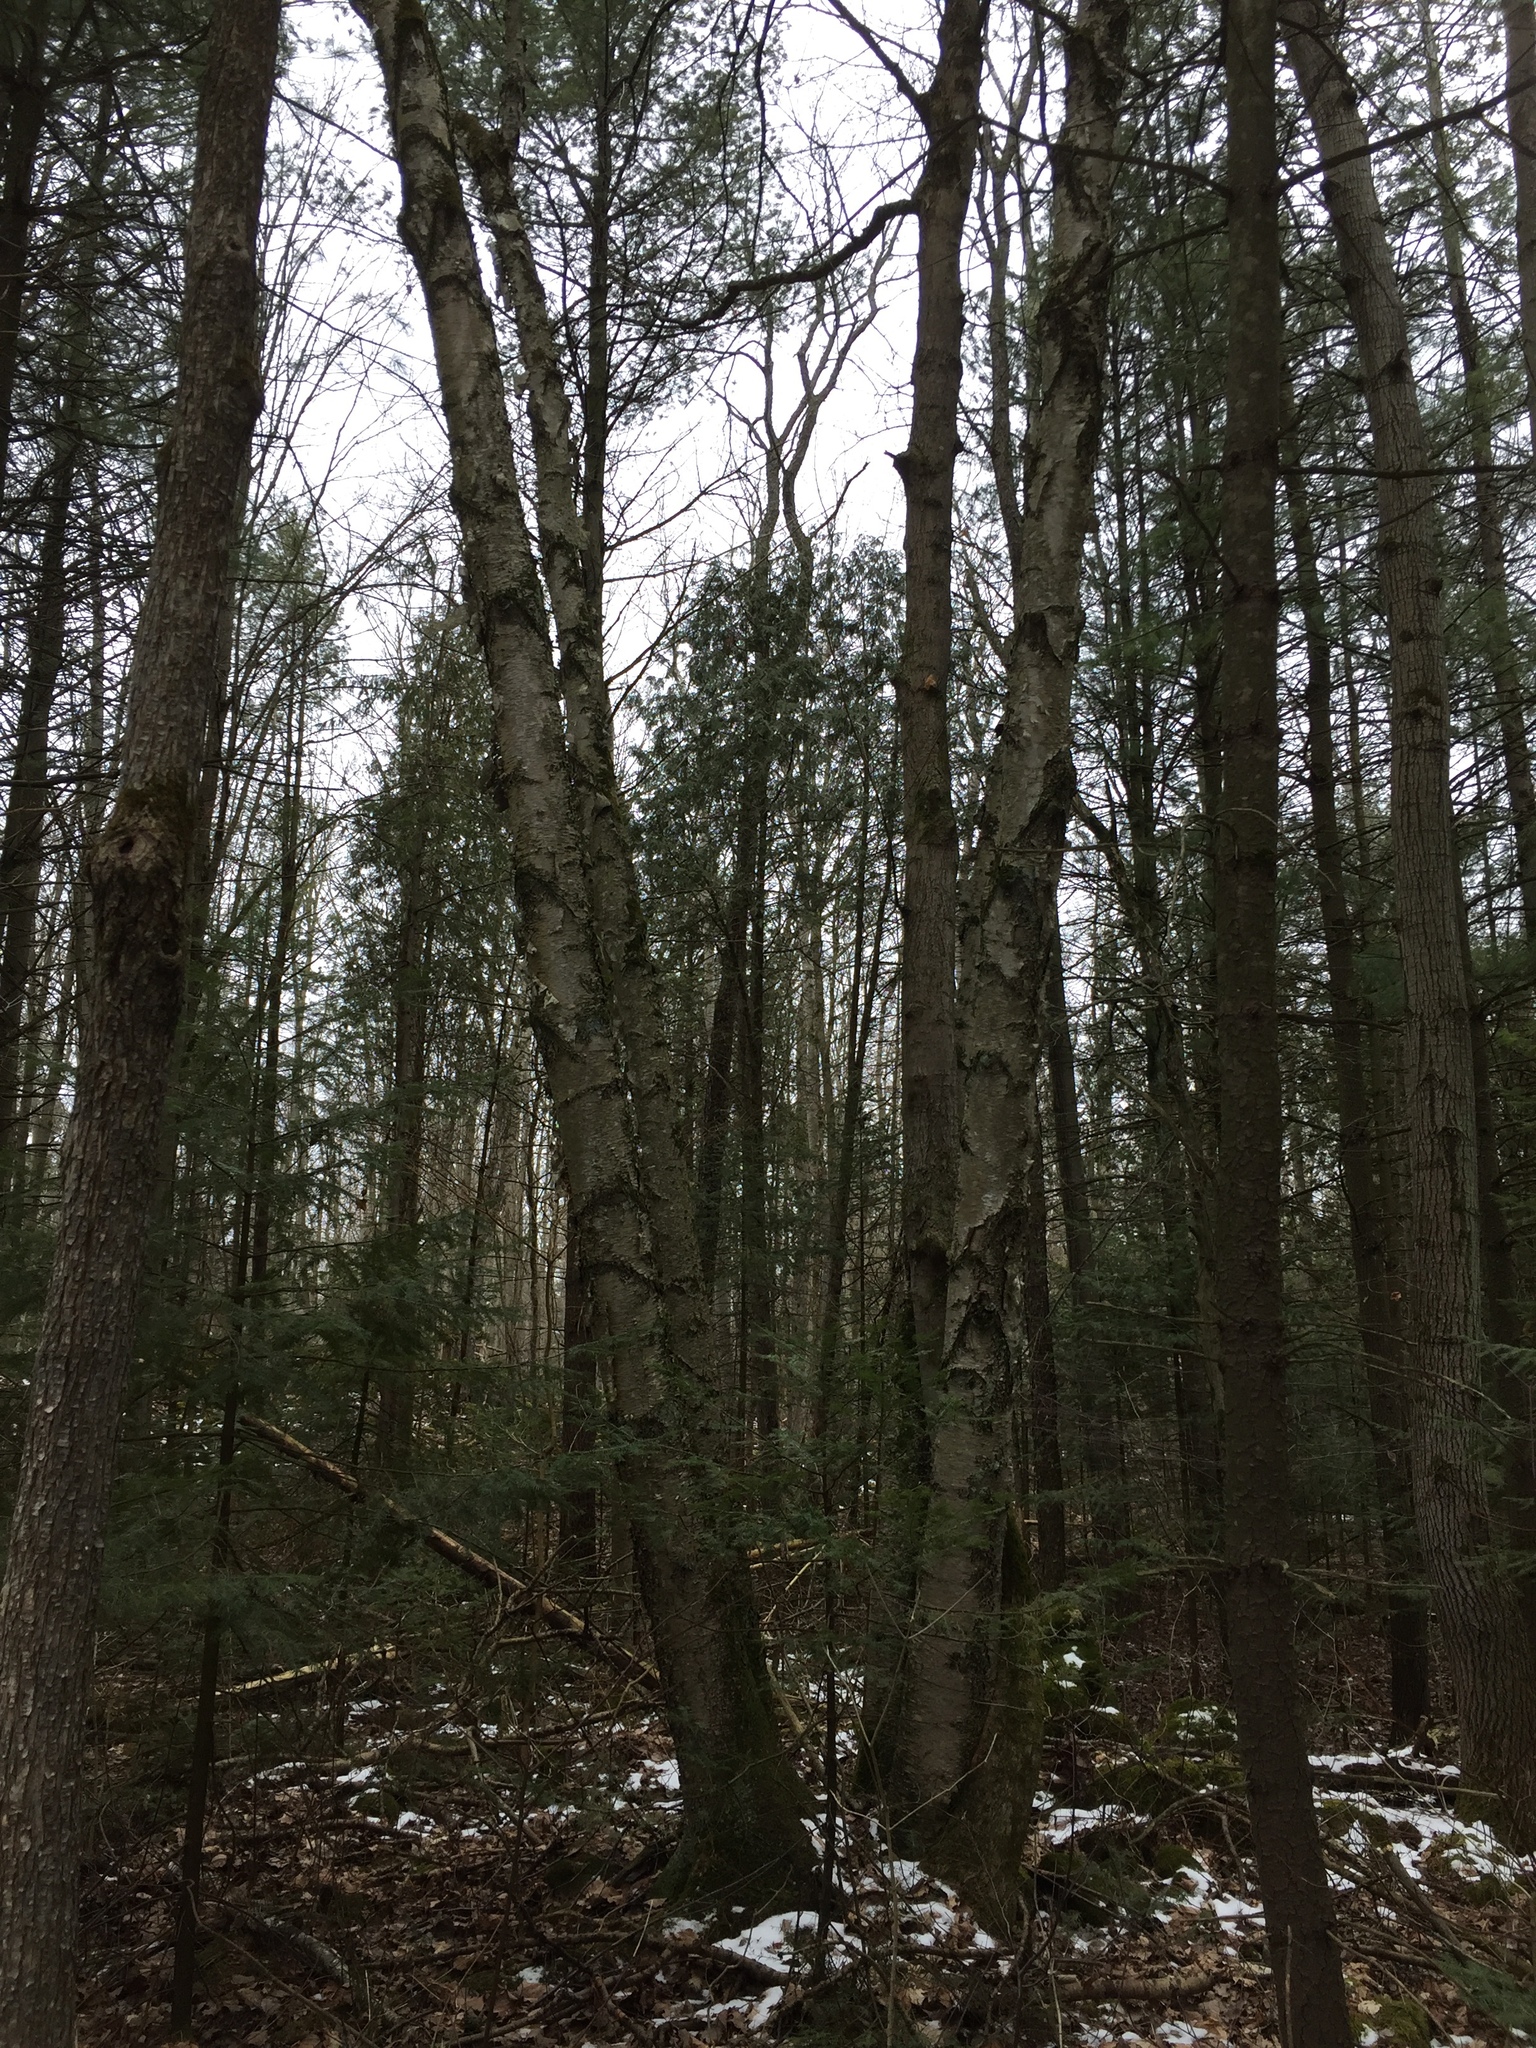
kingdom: Plantae
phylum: Tracheophyta
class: Magnoliopsida
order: Fagales
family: Betulaceae
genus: Betula
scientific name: Betula papyrifera
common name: Paper birch
